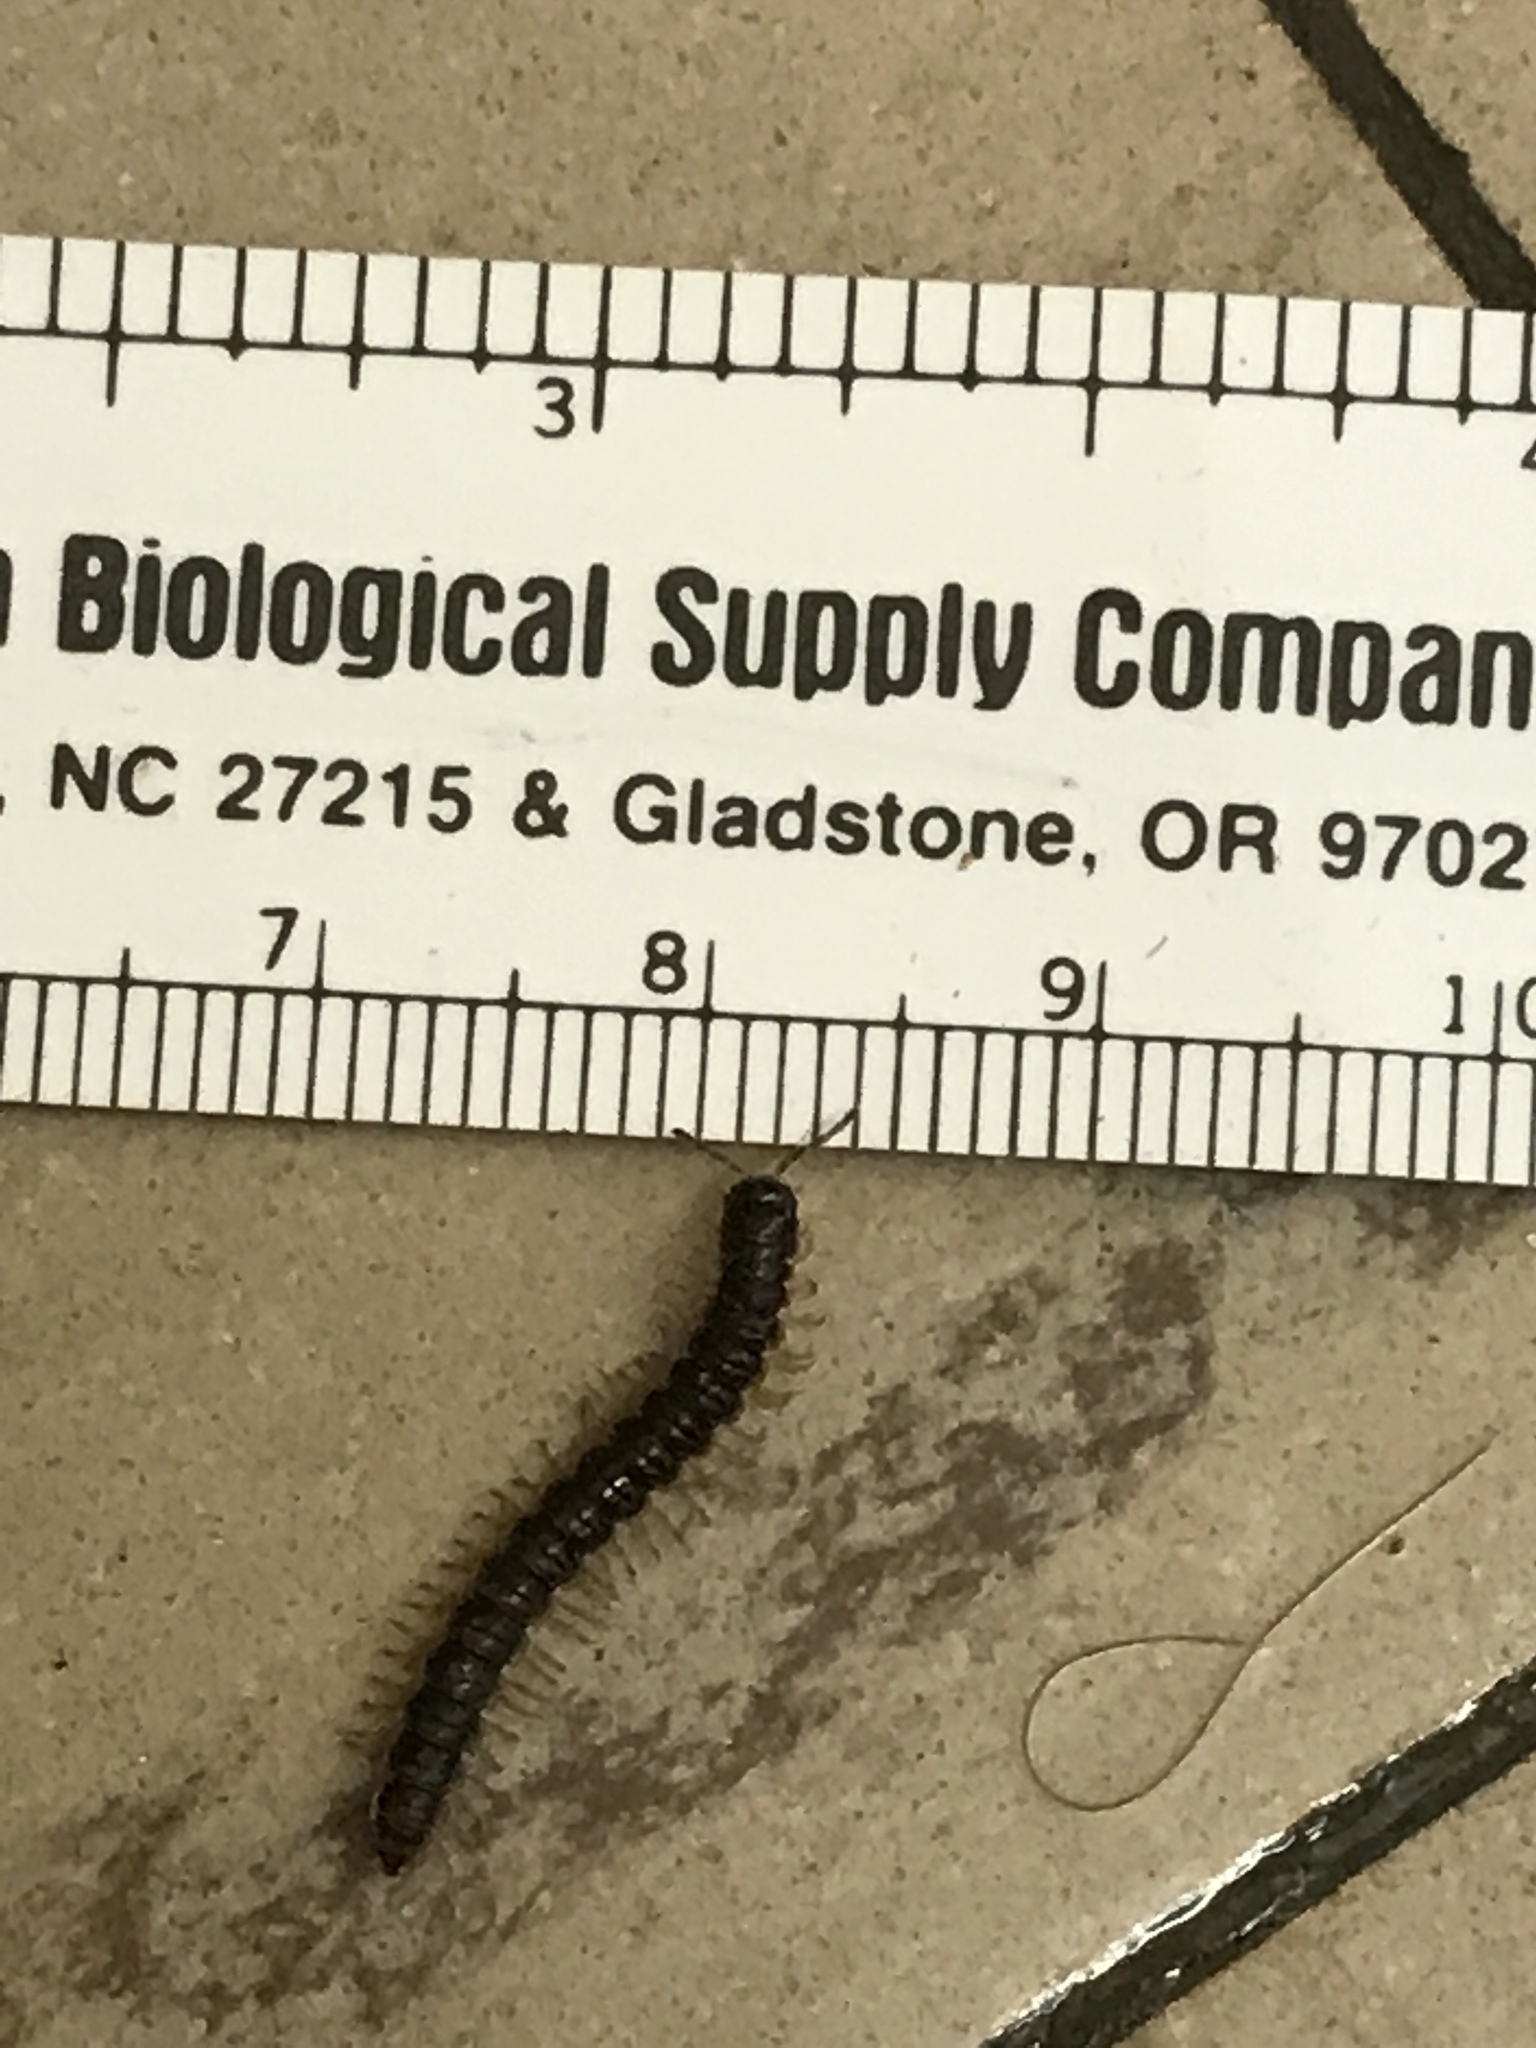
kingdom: Animalia
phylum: Arthropoda
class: Diplopoda
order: Polydesmida
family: Paradoxosomatidae
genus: Oxidus
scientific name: Oxidus gracilis
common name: Greenhouse millipede
